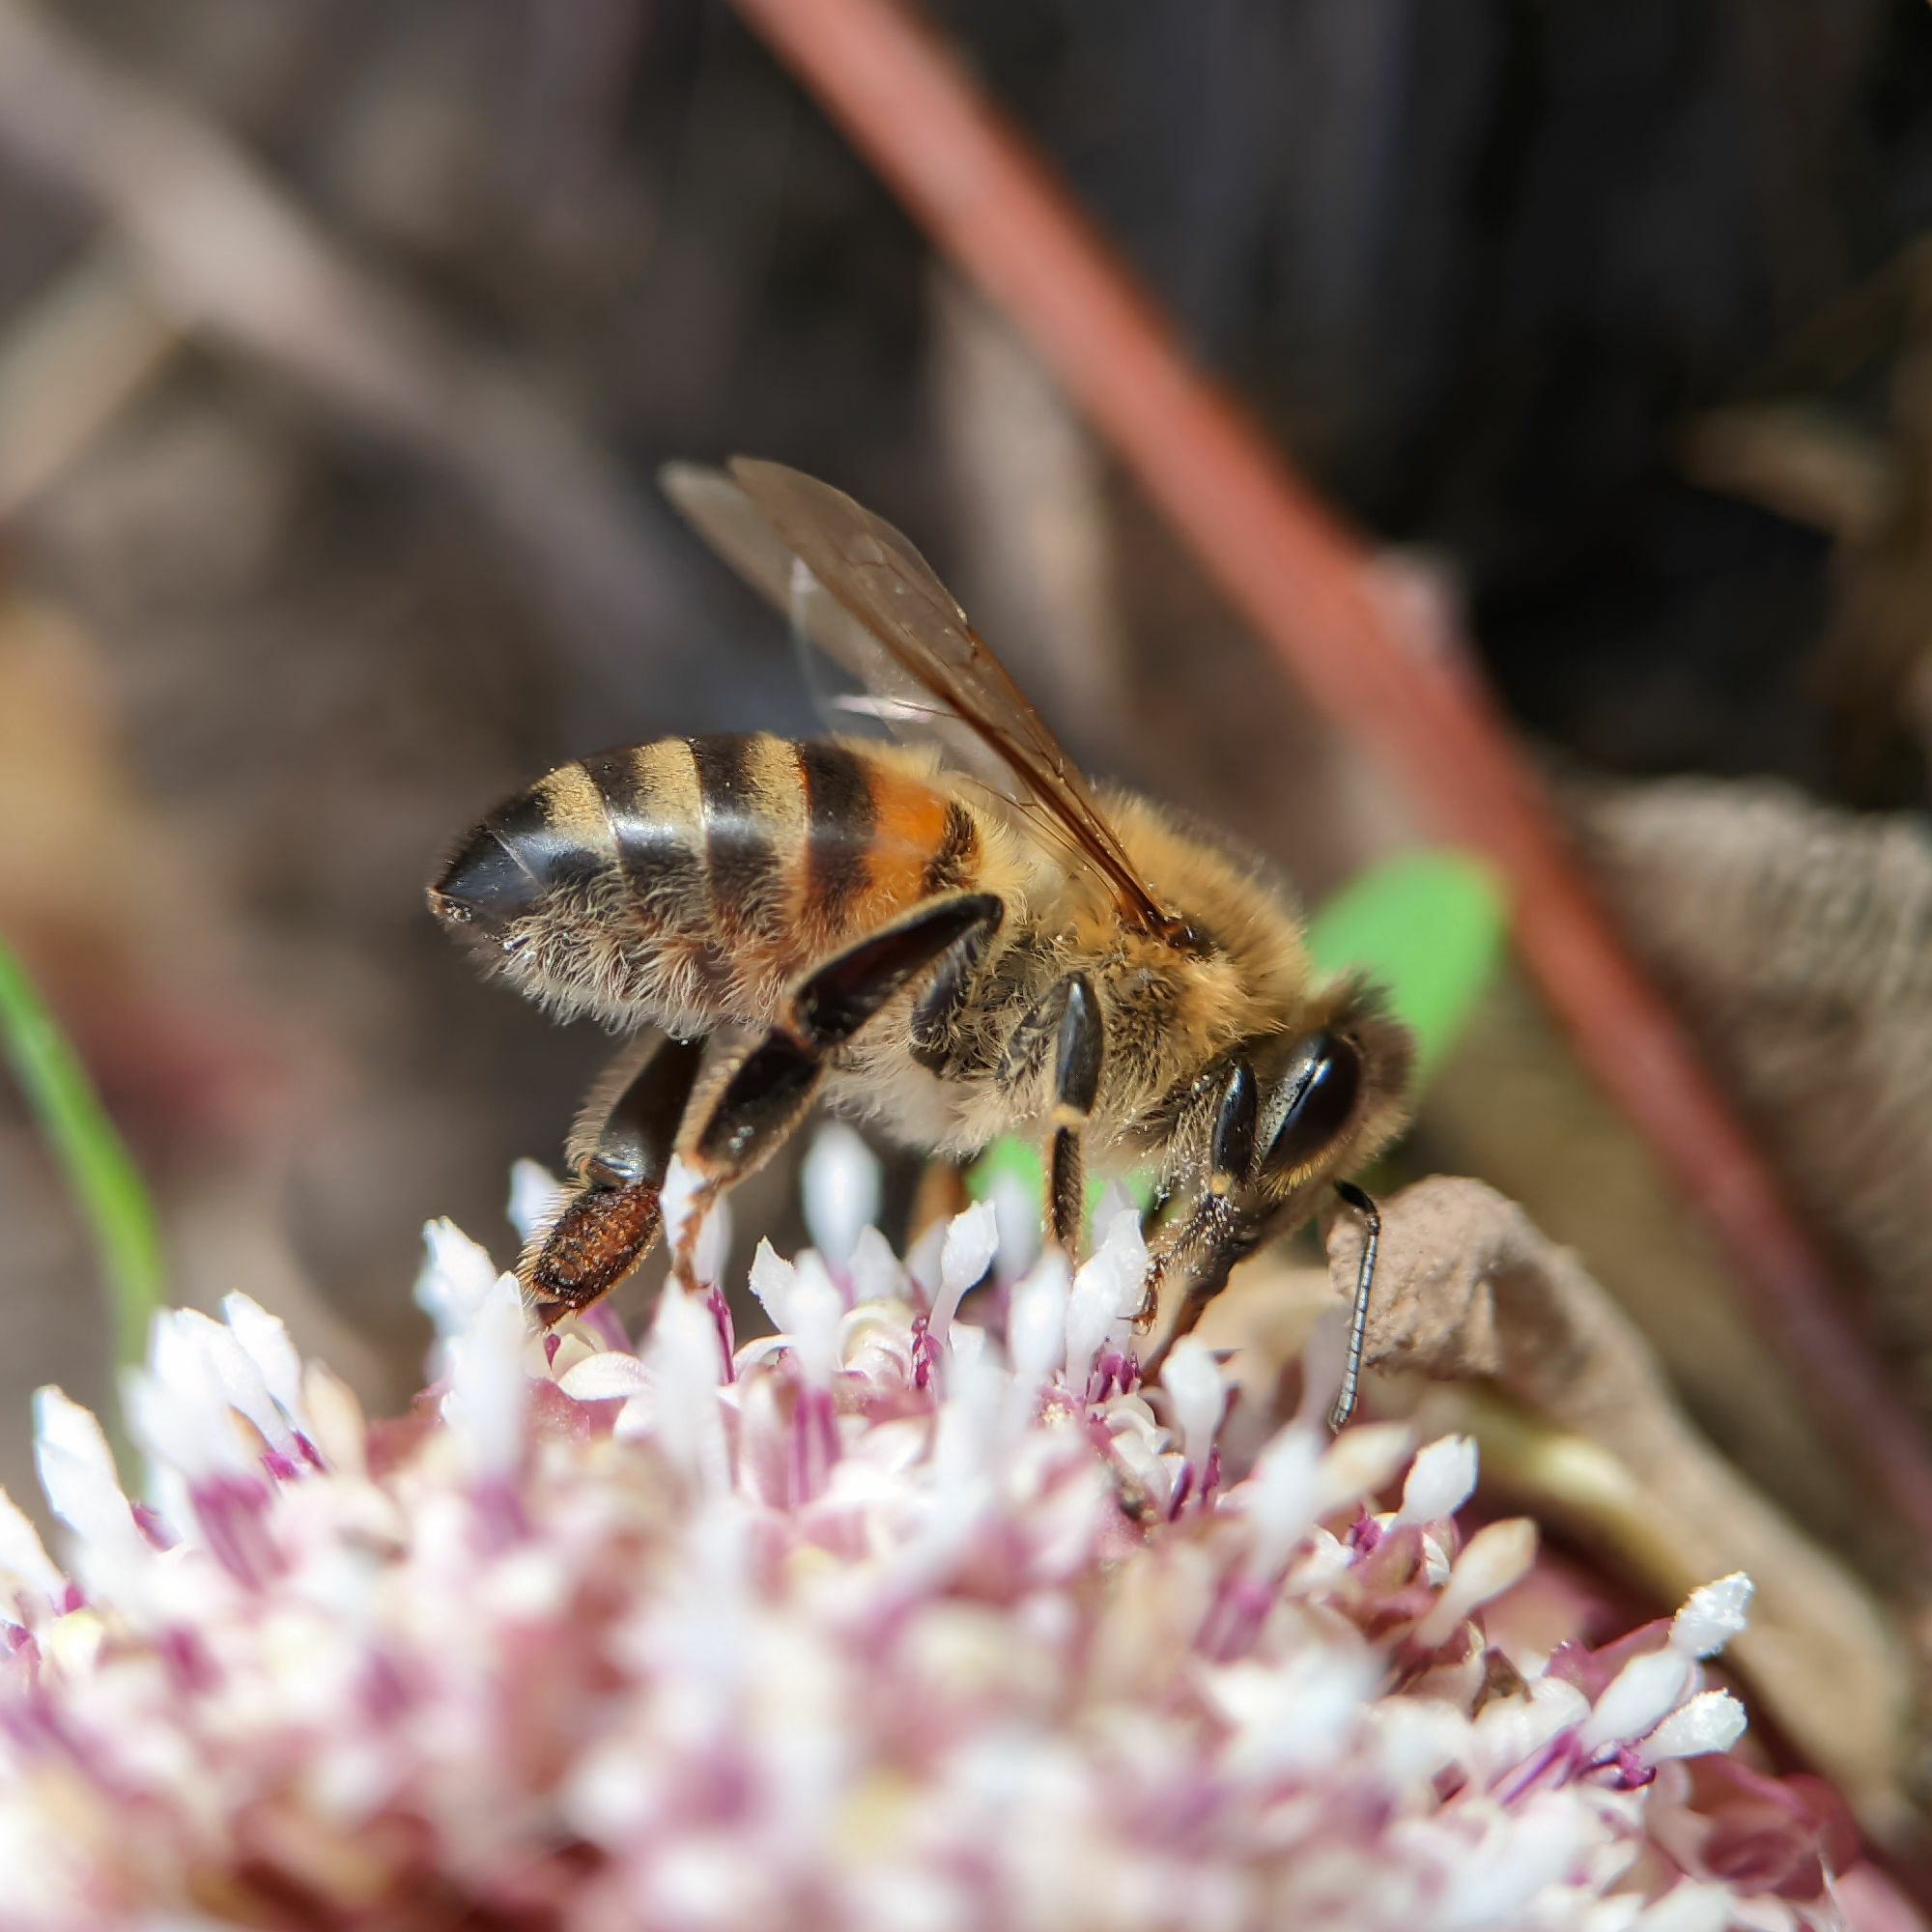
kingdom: Animalia
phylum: Arthropoda
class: Insecta
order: Hymenoptera
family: Apidae
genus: Apis
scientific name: Apis mellifera
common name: Honey bee
